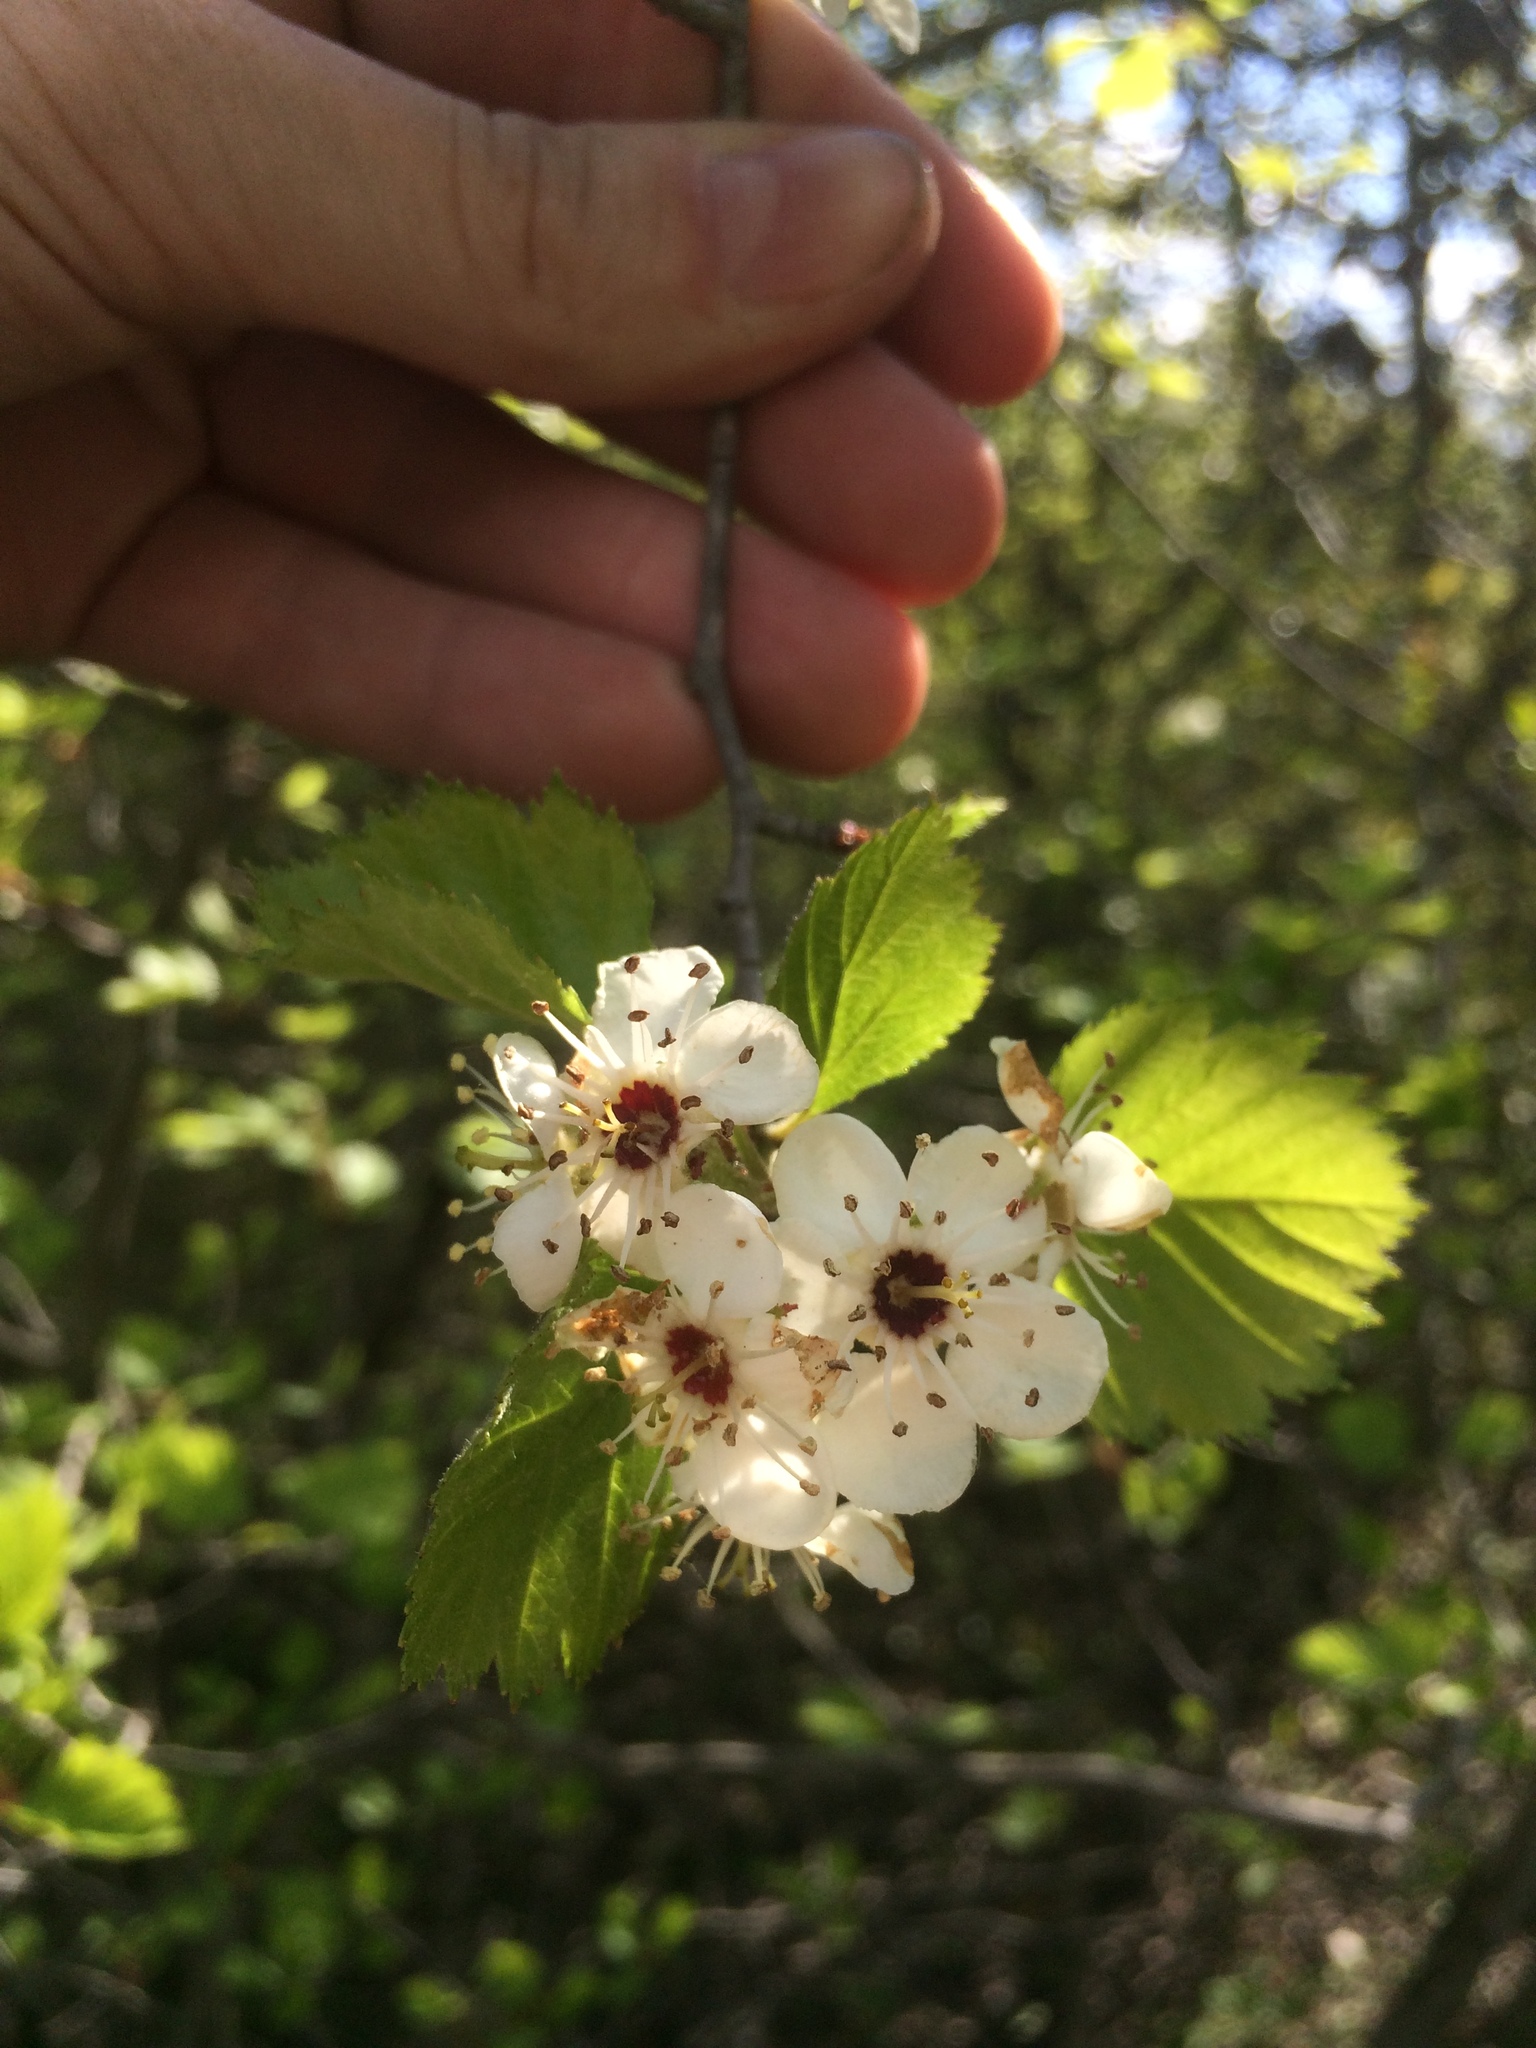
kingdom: Plantae
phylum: Tracheophyta
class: Magnoliopsida
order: Rosales
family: Rosaceae
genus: Crataegus
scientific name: Crataegus submollis
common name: Hairy cockspurthorn
